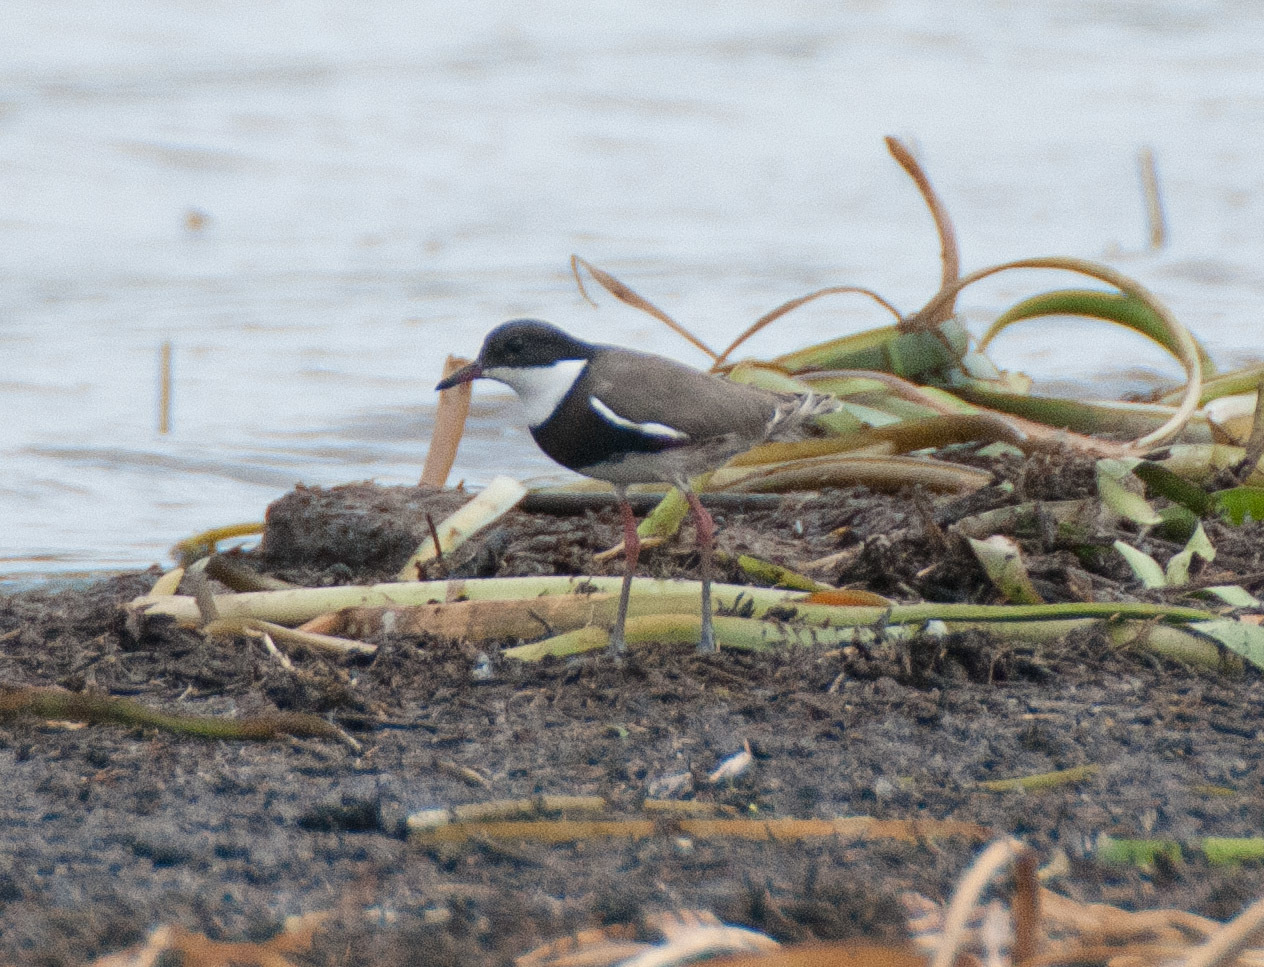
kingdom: Animalia
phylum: Chordata
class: Aves
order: Charadriiformes
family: Charadriidae
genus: Erythrogonys
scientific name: Erythrogonys cinctus
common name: Red-kneed dotterel
